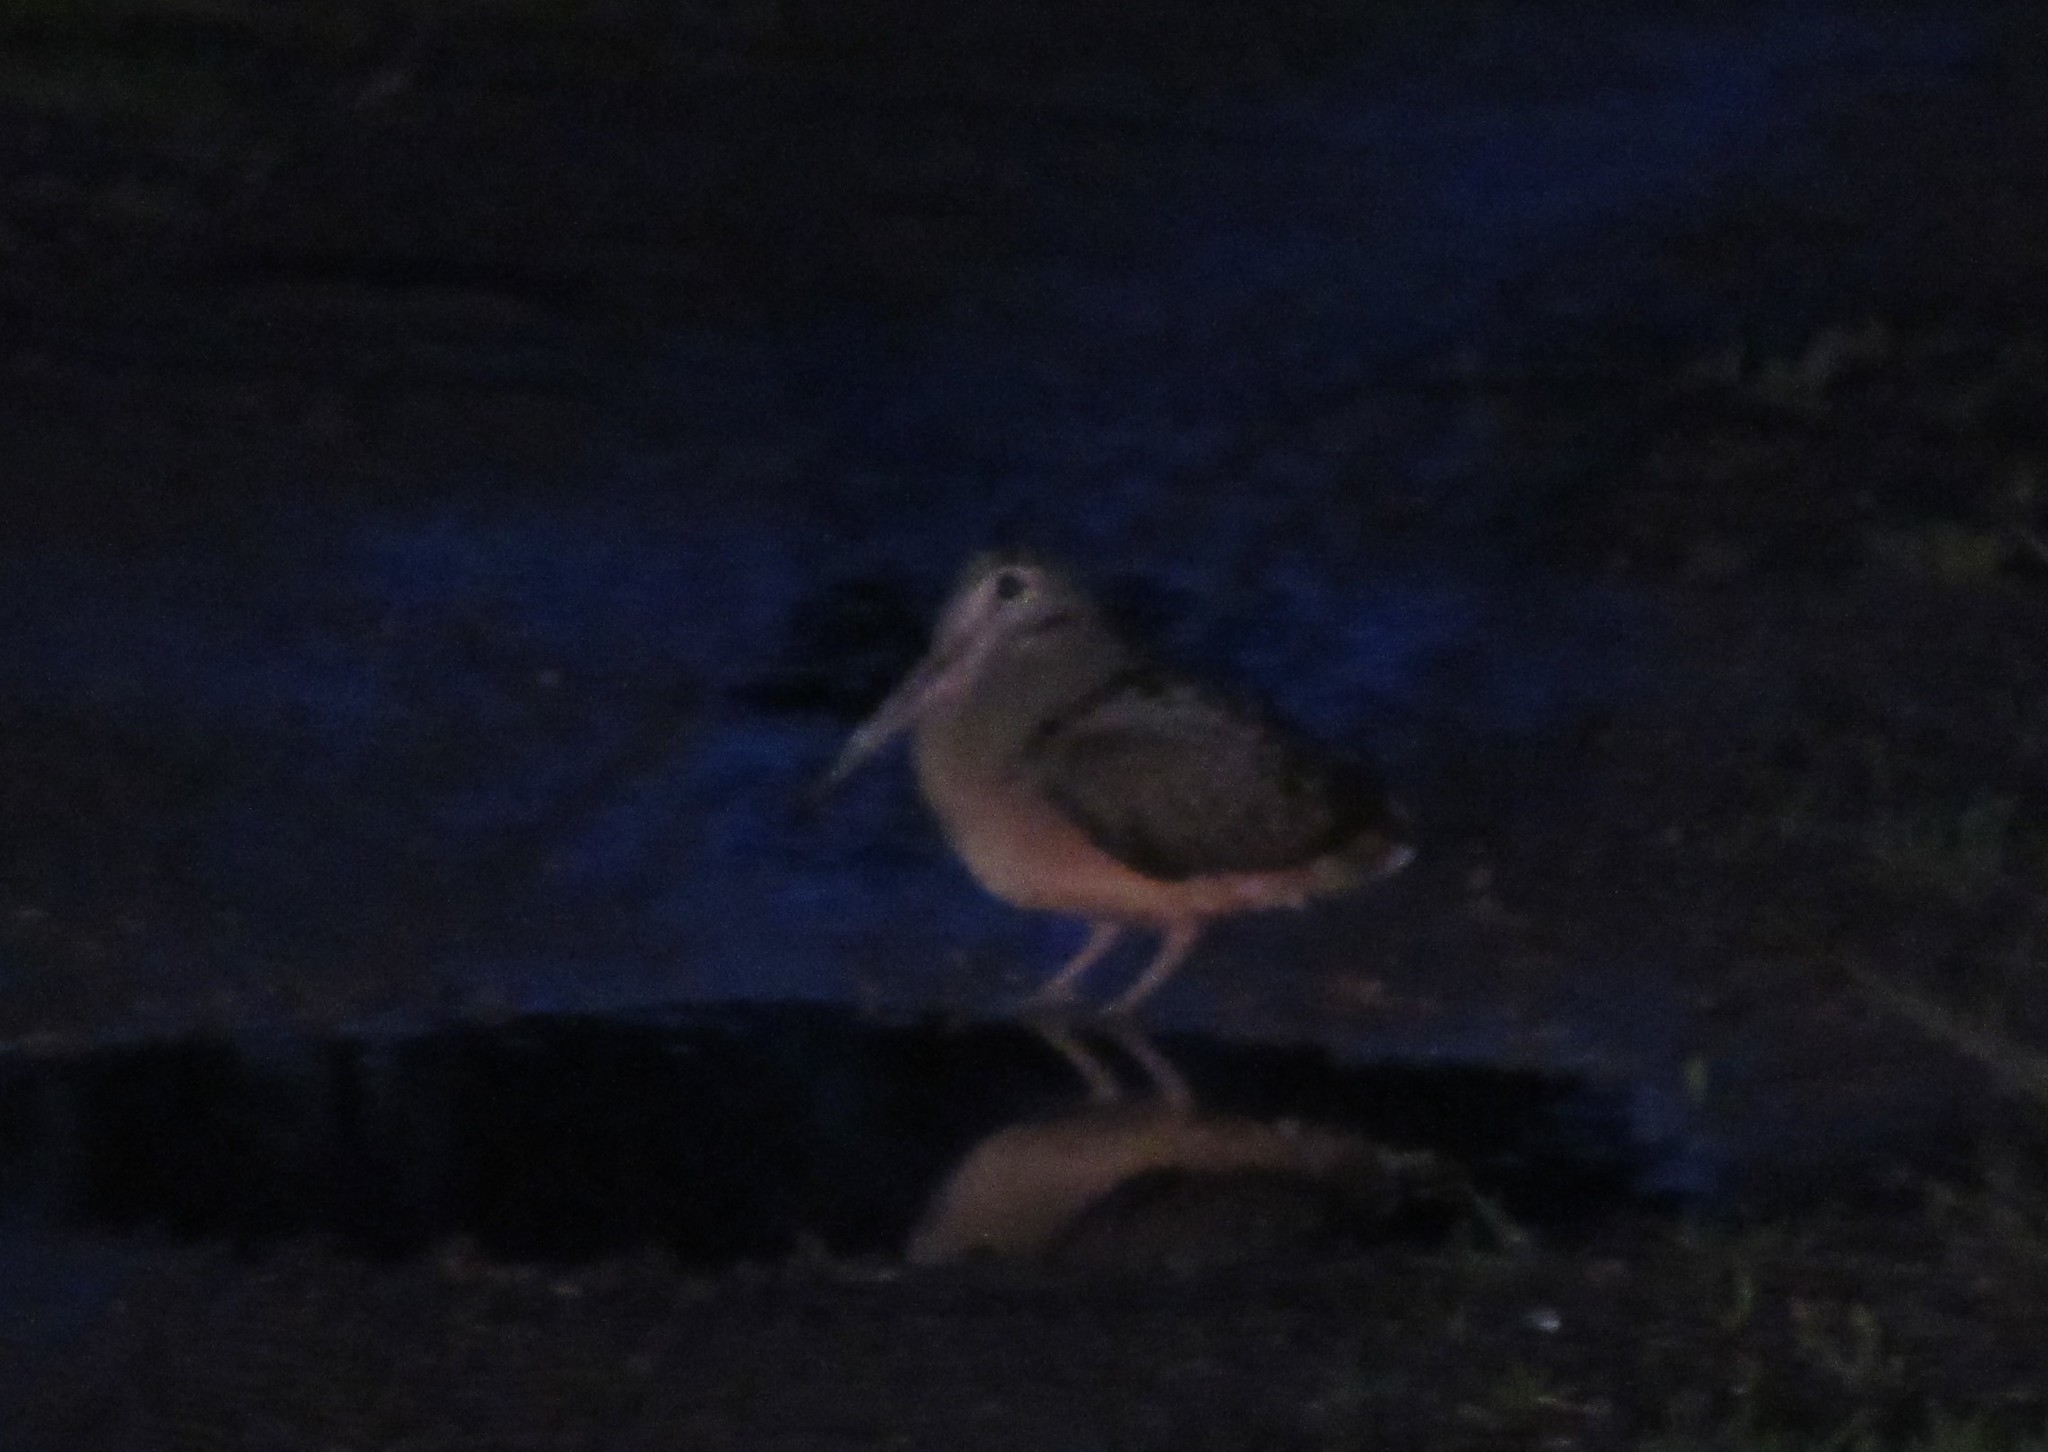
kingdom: Animalia
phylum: Chordata
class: Aves
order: Charadriiformes
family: Scolopacidae
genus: Scolopax
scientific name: Scolopax minor
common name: American woodcock
